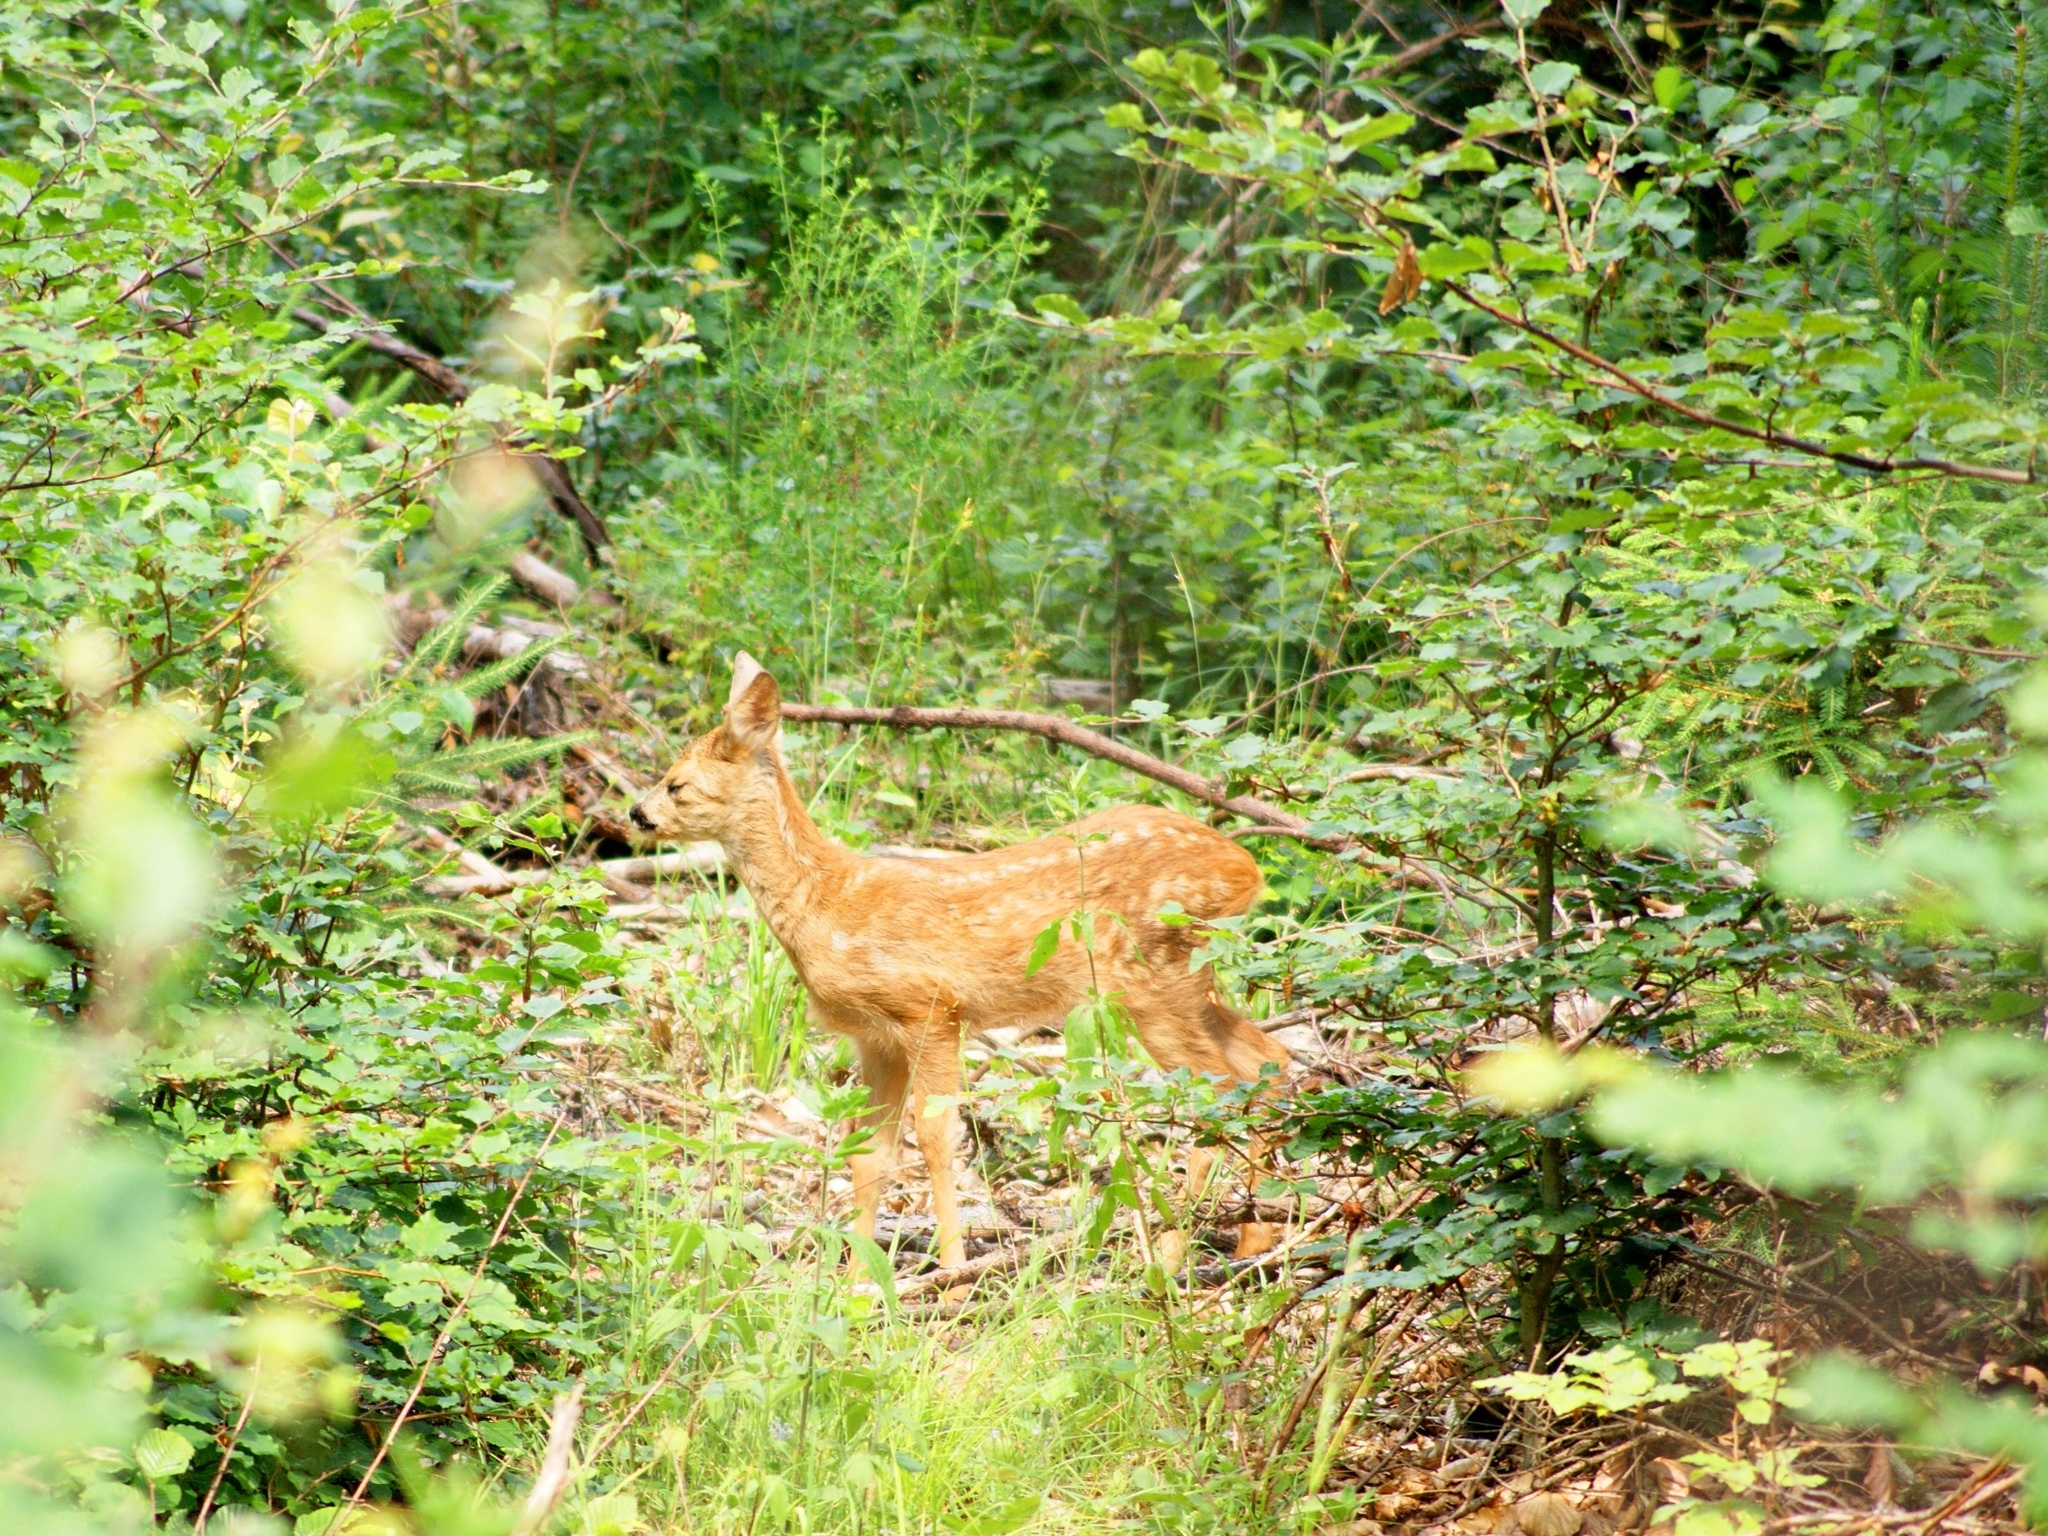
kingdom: Animalia
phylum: Chordata
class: Mammalia
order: Artiodactyla
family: Cervidae
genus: Capreolus
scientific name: Capreolus capreolus
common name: Western roe deer
